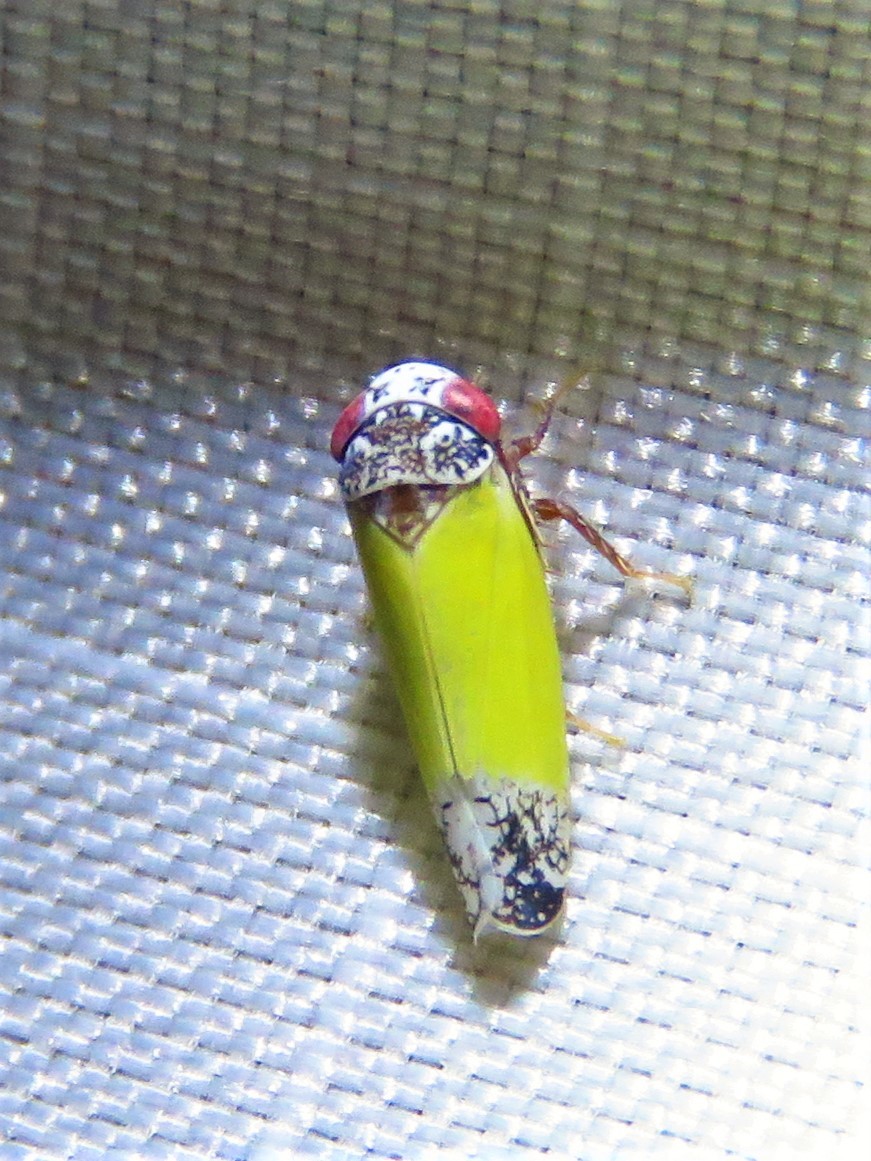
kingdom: Animalia
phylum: Arthropoda
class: Insecta
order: Hemiptera
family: Cicadellidae
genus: Norvellina
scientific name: Norvellina bicolorata
